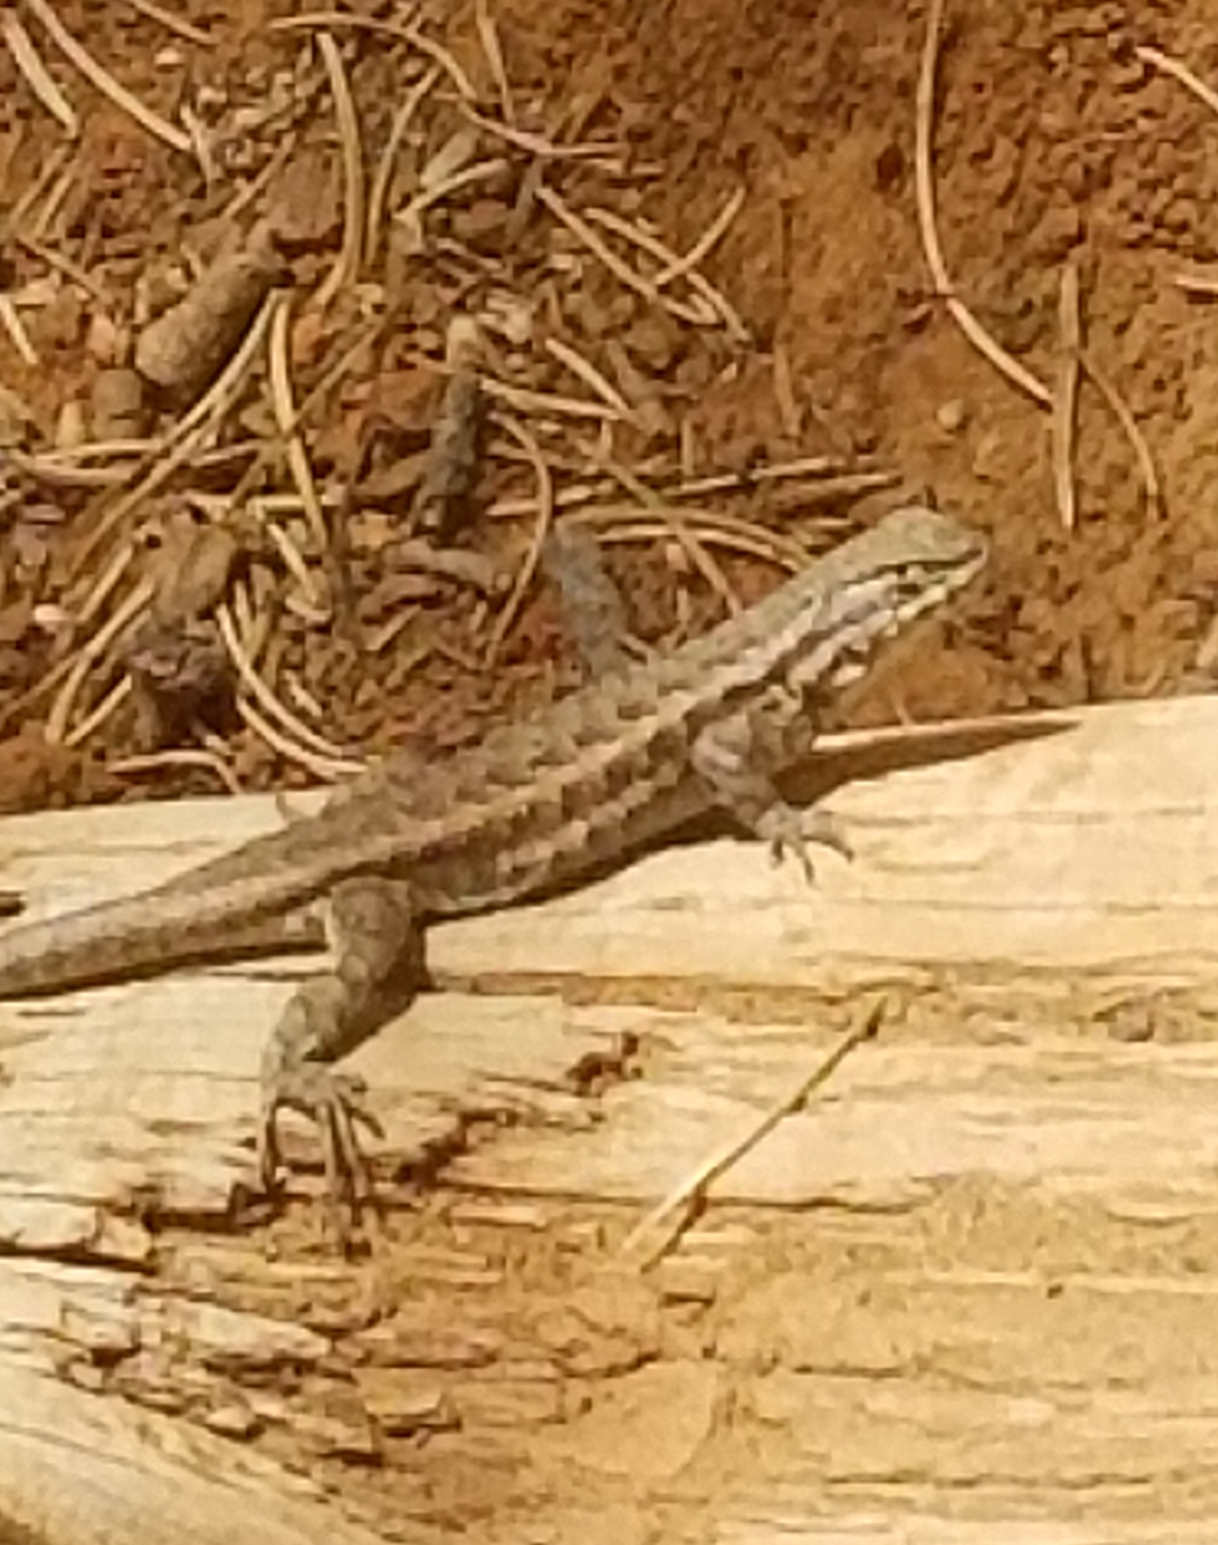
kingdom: Animalia
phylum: Chordata
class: Squamata
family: Phrynosomatidae
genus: Sceloporus
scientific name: Sceloporus graciosus
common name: Sagebrush lizard
